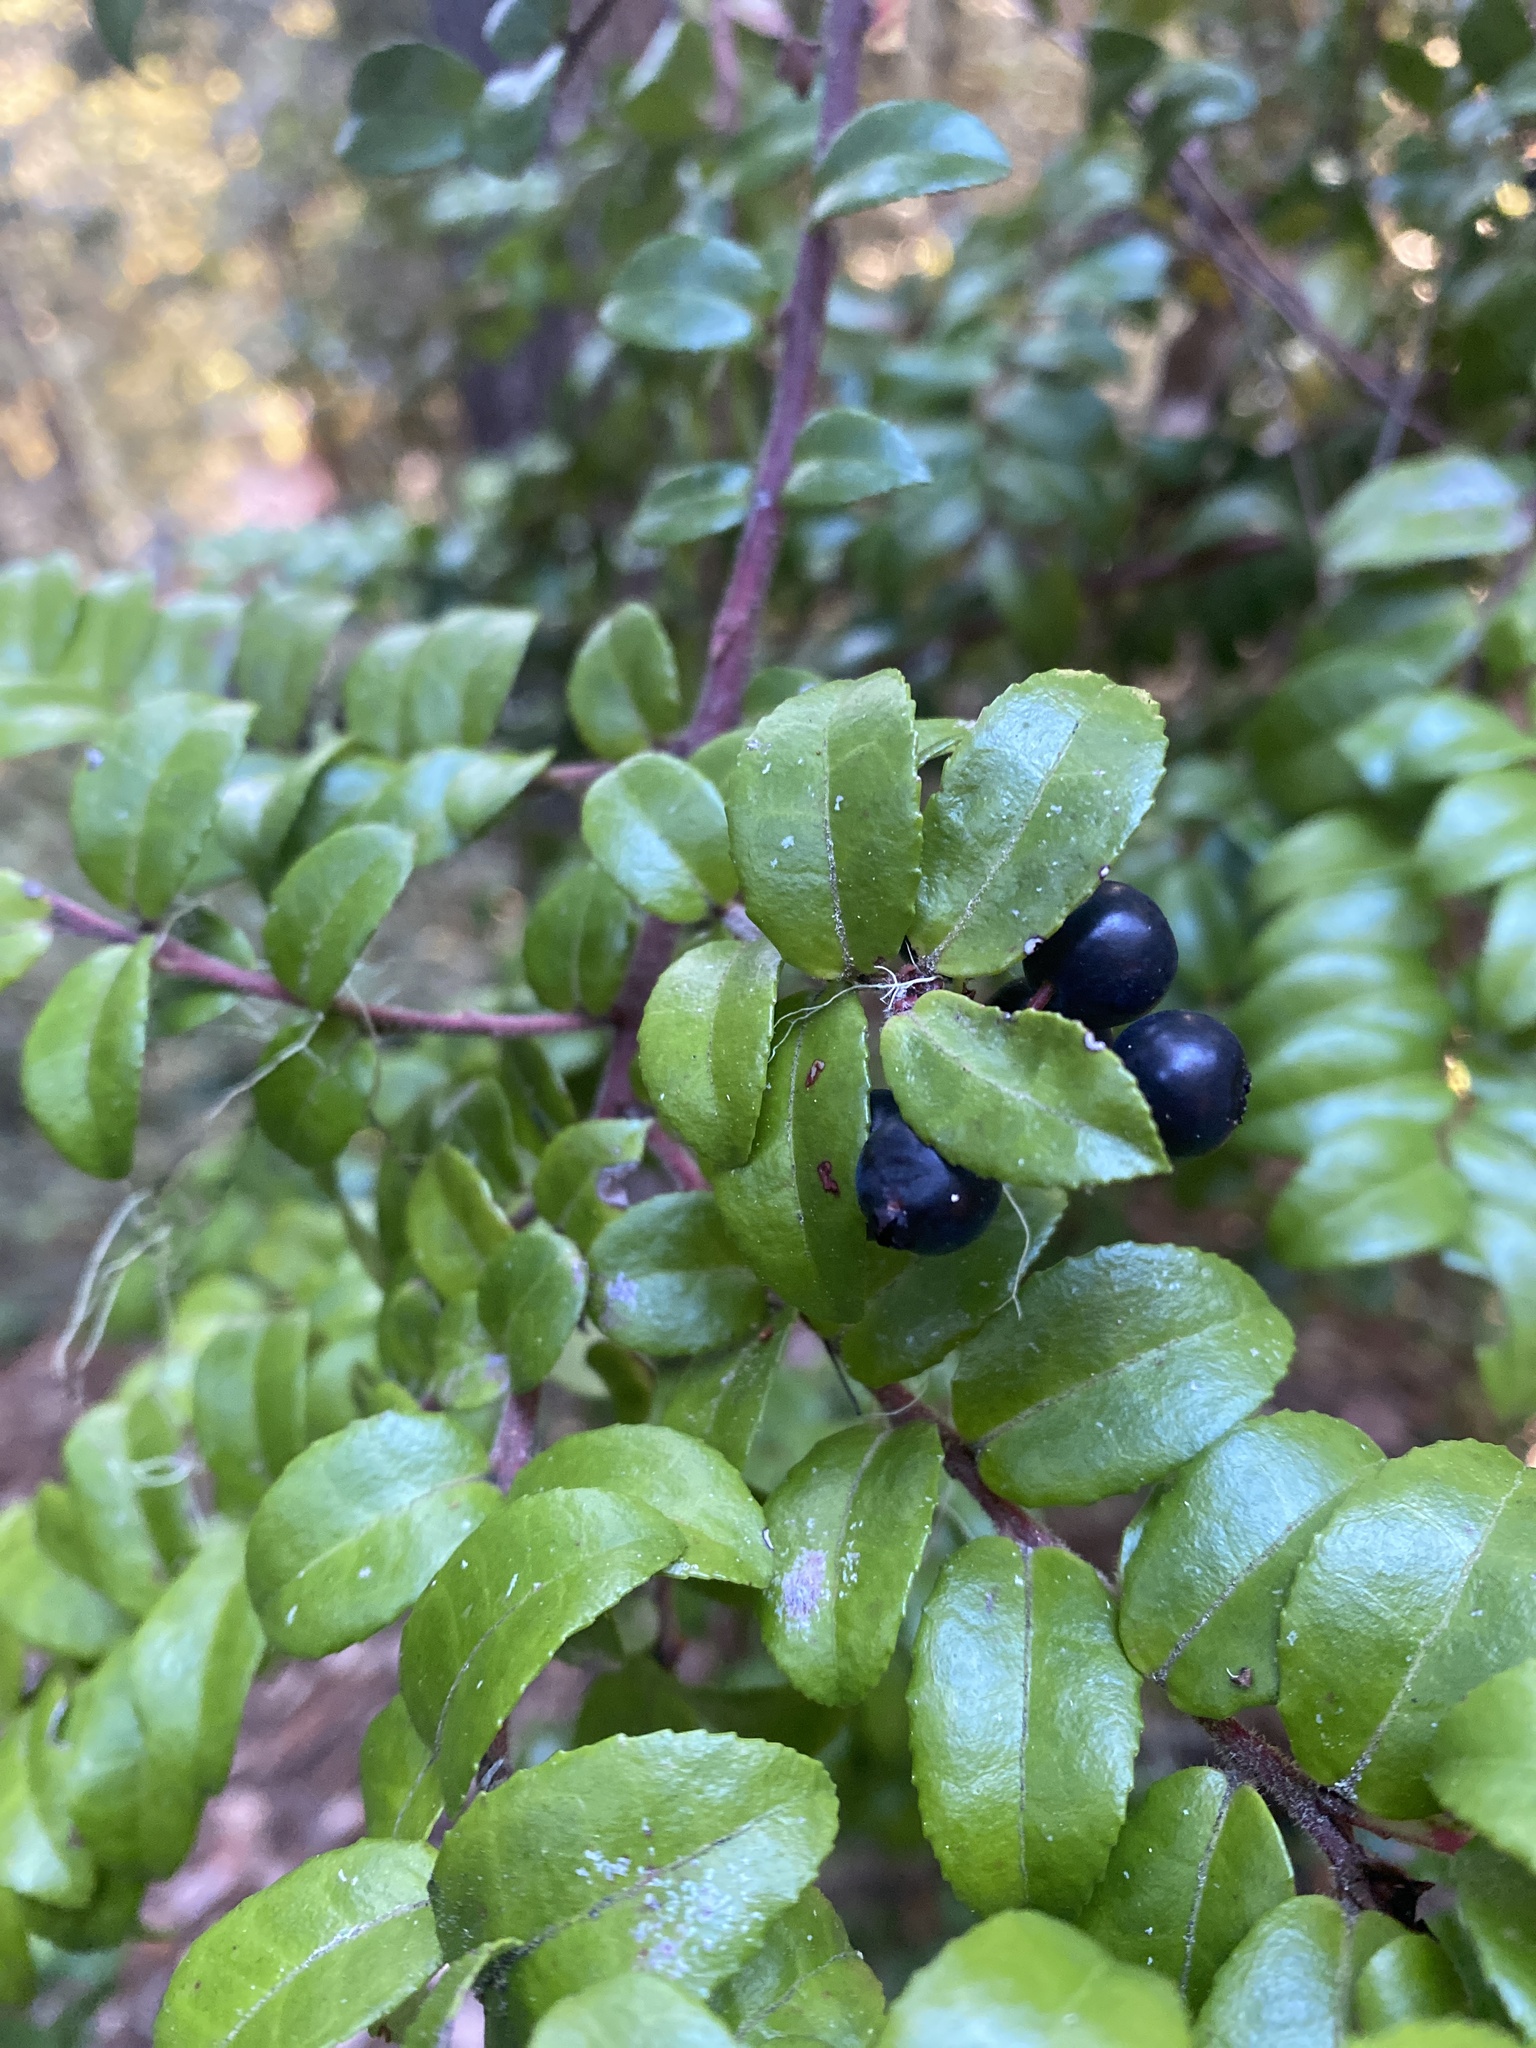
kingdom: Plantae
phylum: Tracheophyta
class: Magnoliopsida
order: Ericales
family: Ericaceae
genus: Vaccinium
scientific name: Vaccinium ovatum
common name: California-huckleberry
